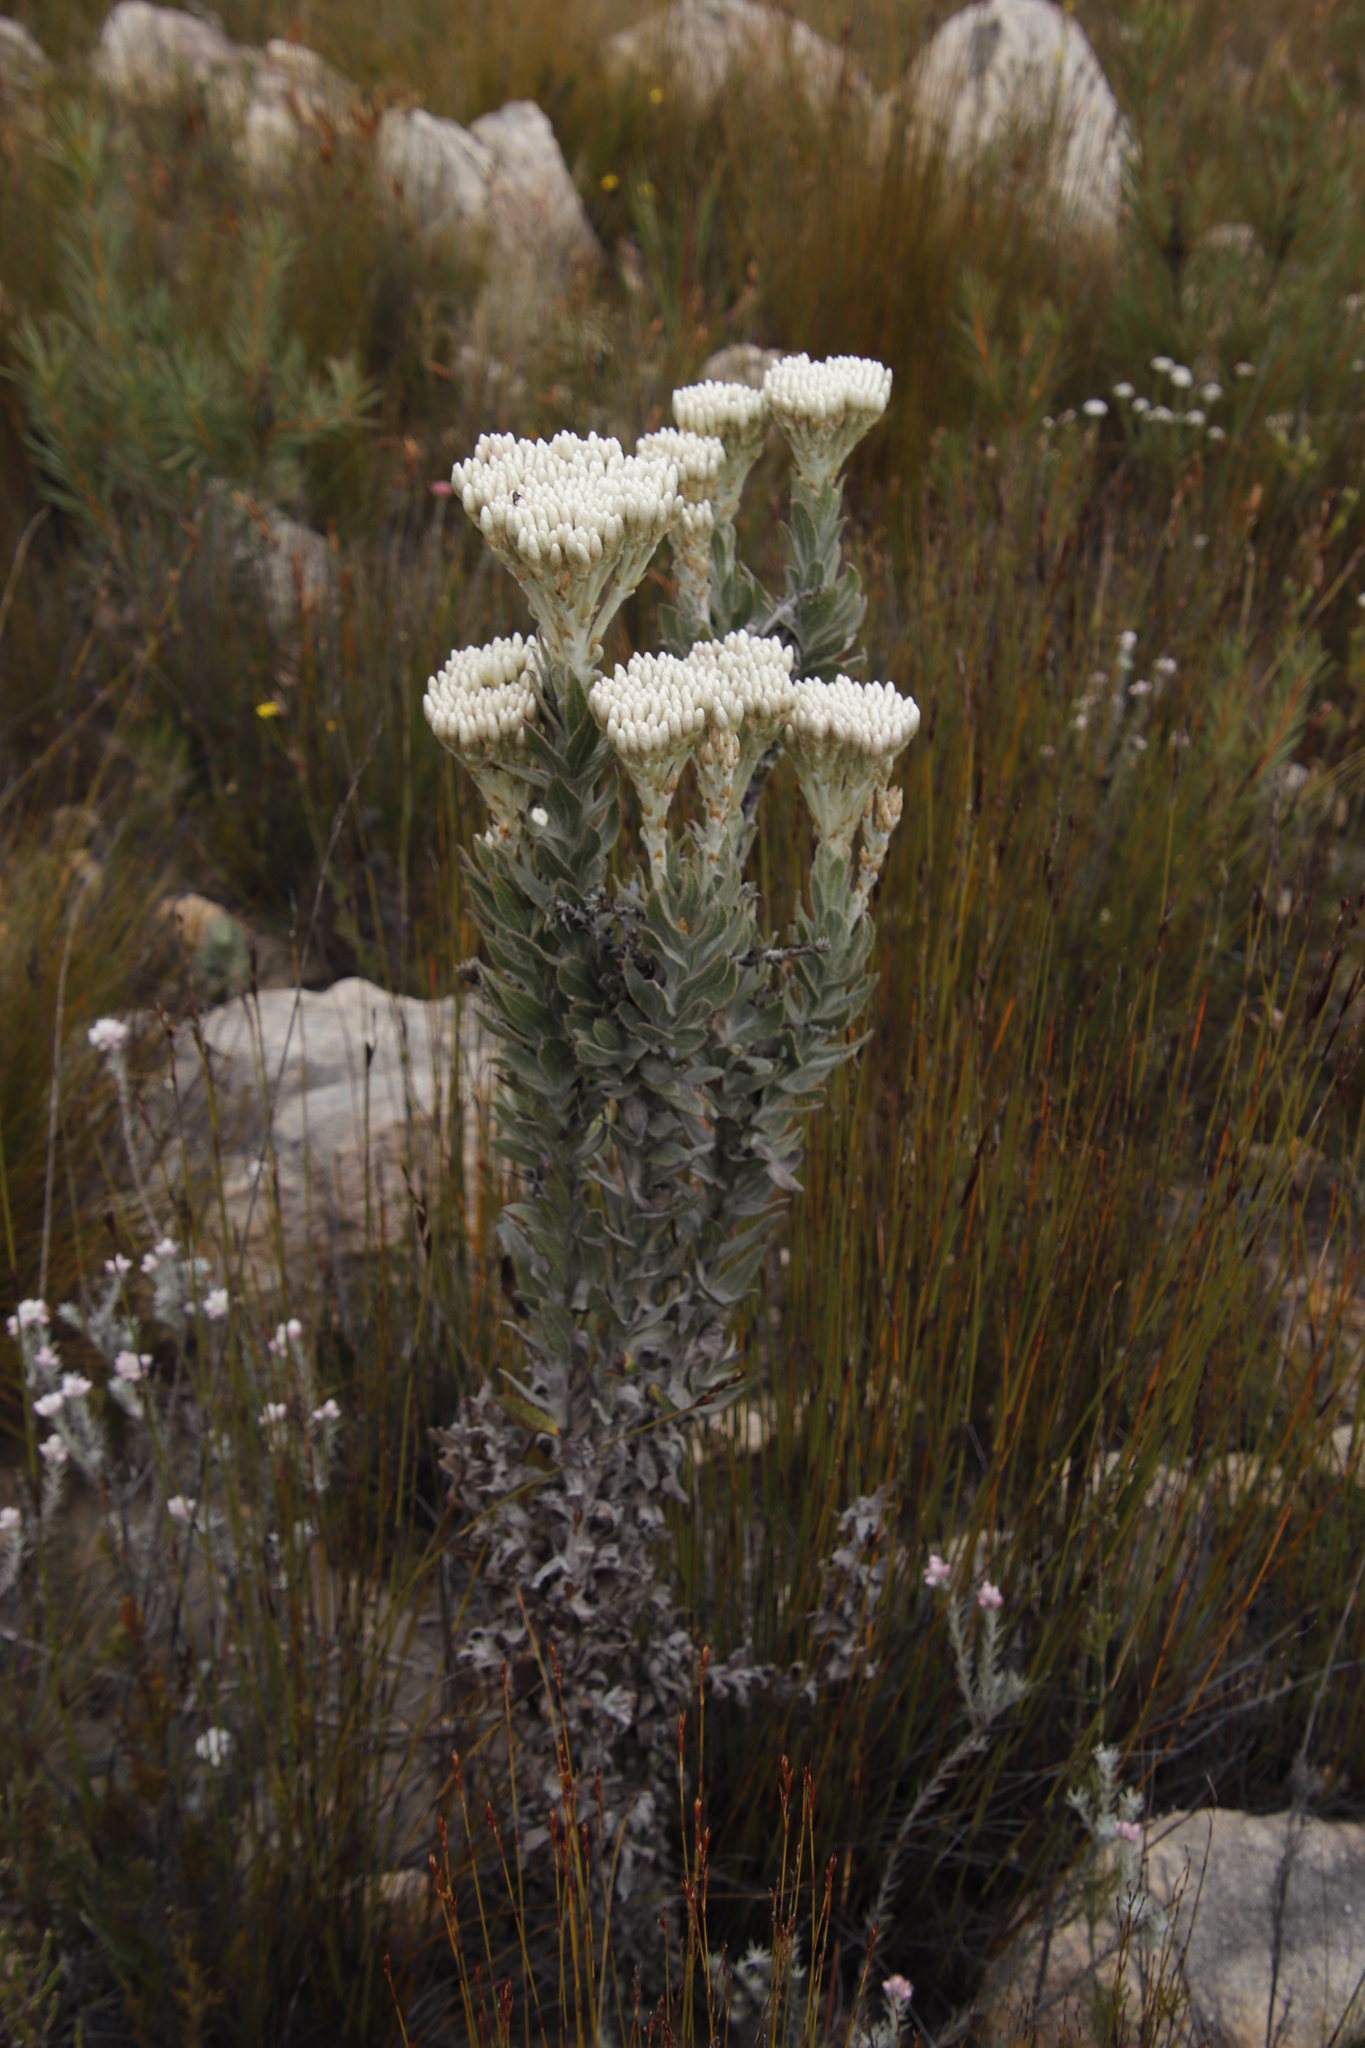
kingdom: Plantae
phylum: Tracheophyta
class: Magnoliopsida
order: Asterales
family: Asteraceae
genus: Syncarpha
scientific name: Syncarpha milleflora
